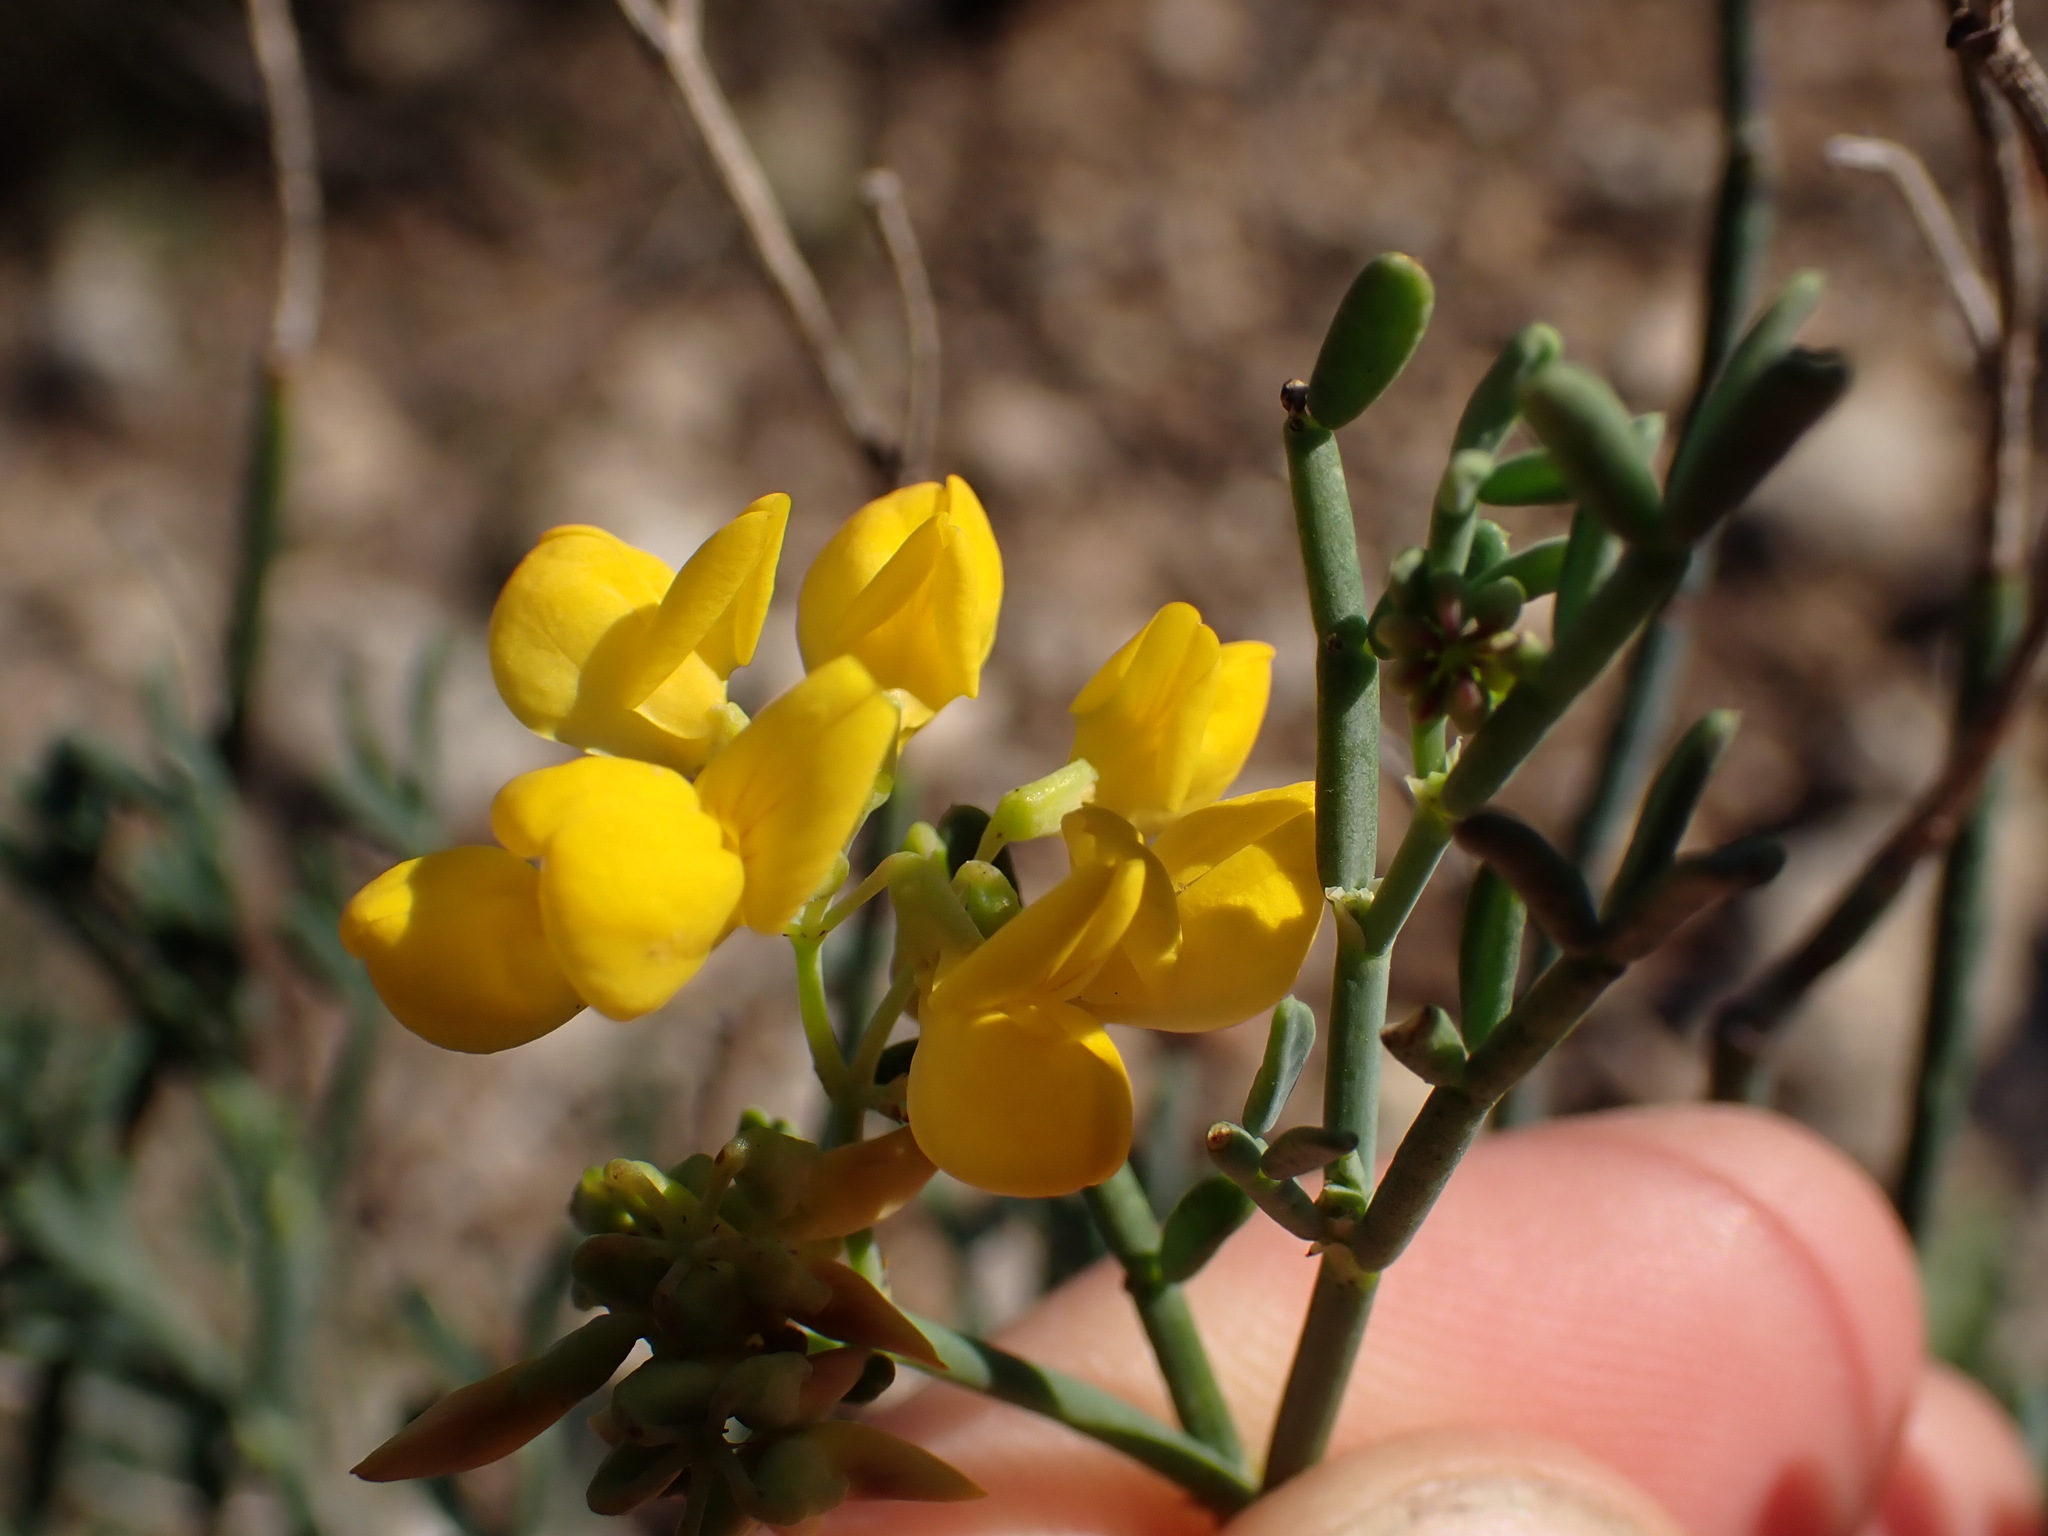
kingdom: Plantae
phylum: Tracheophyta
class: Magnoliopsida
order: Fabales
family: Fabaceae
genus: Coronilla
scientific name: Coronilla juncea
